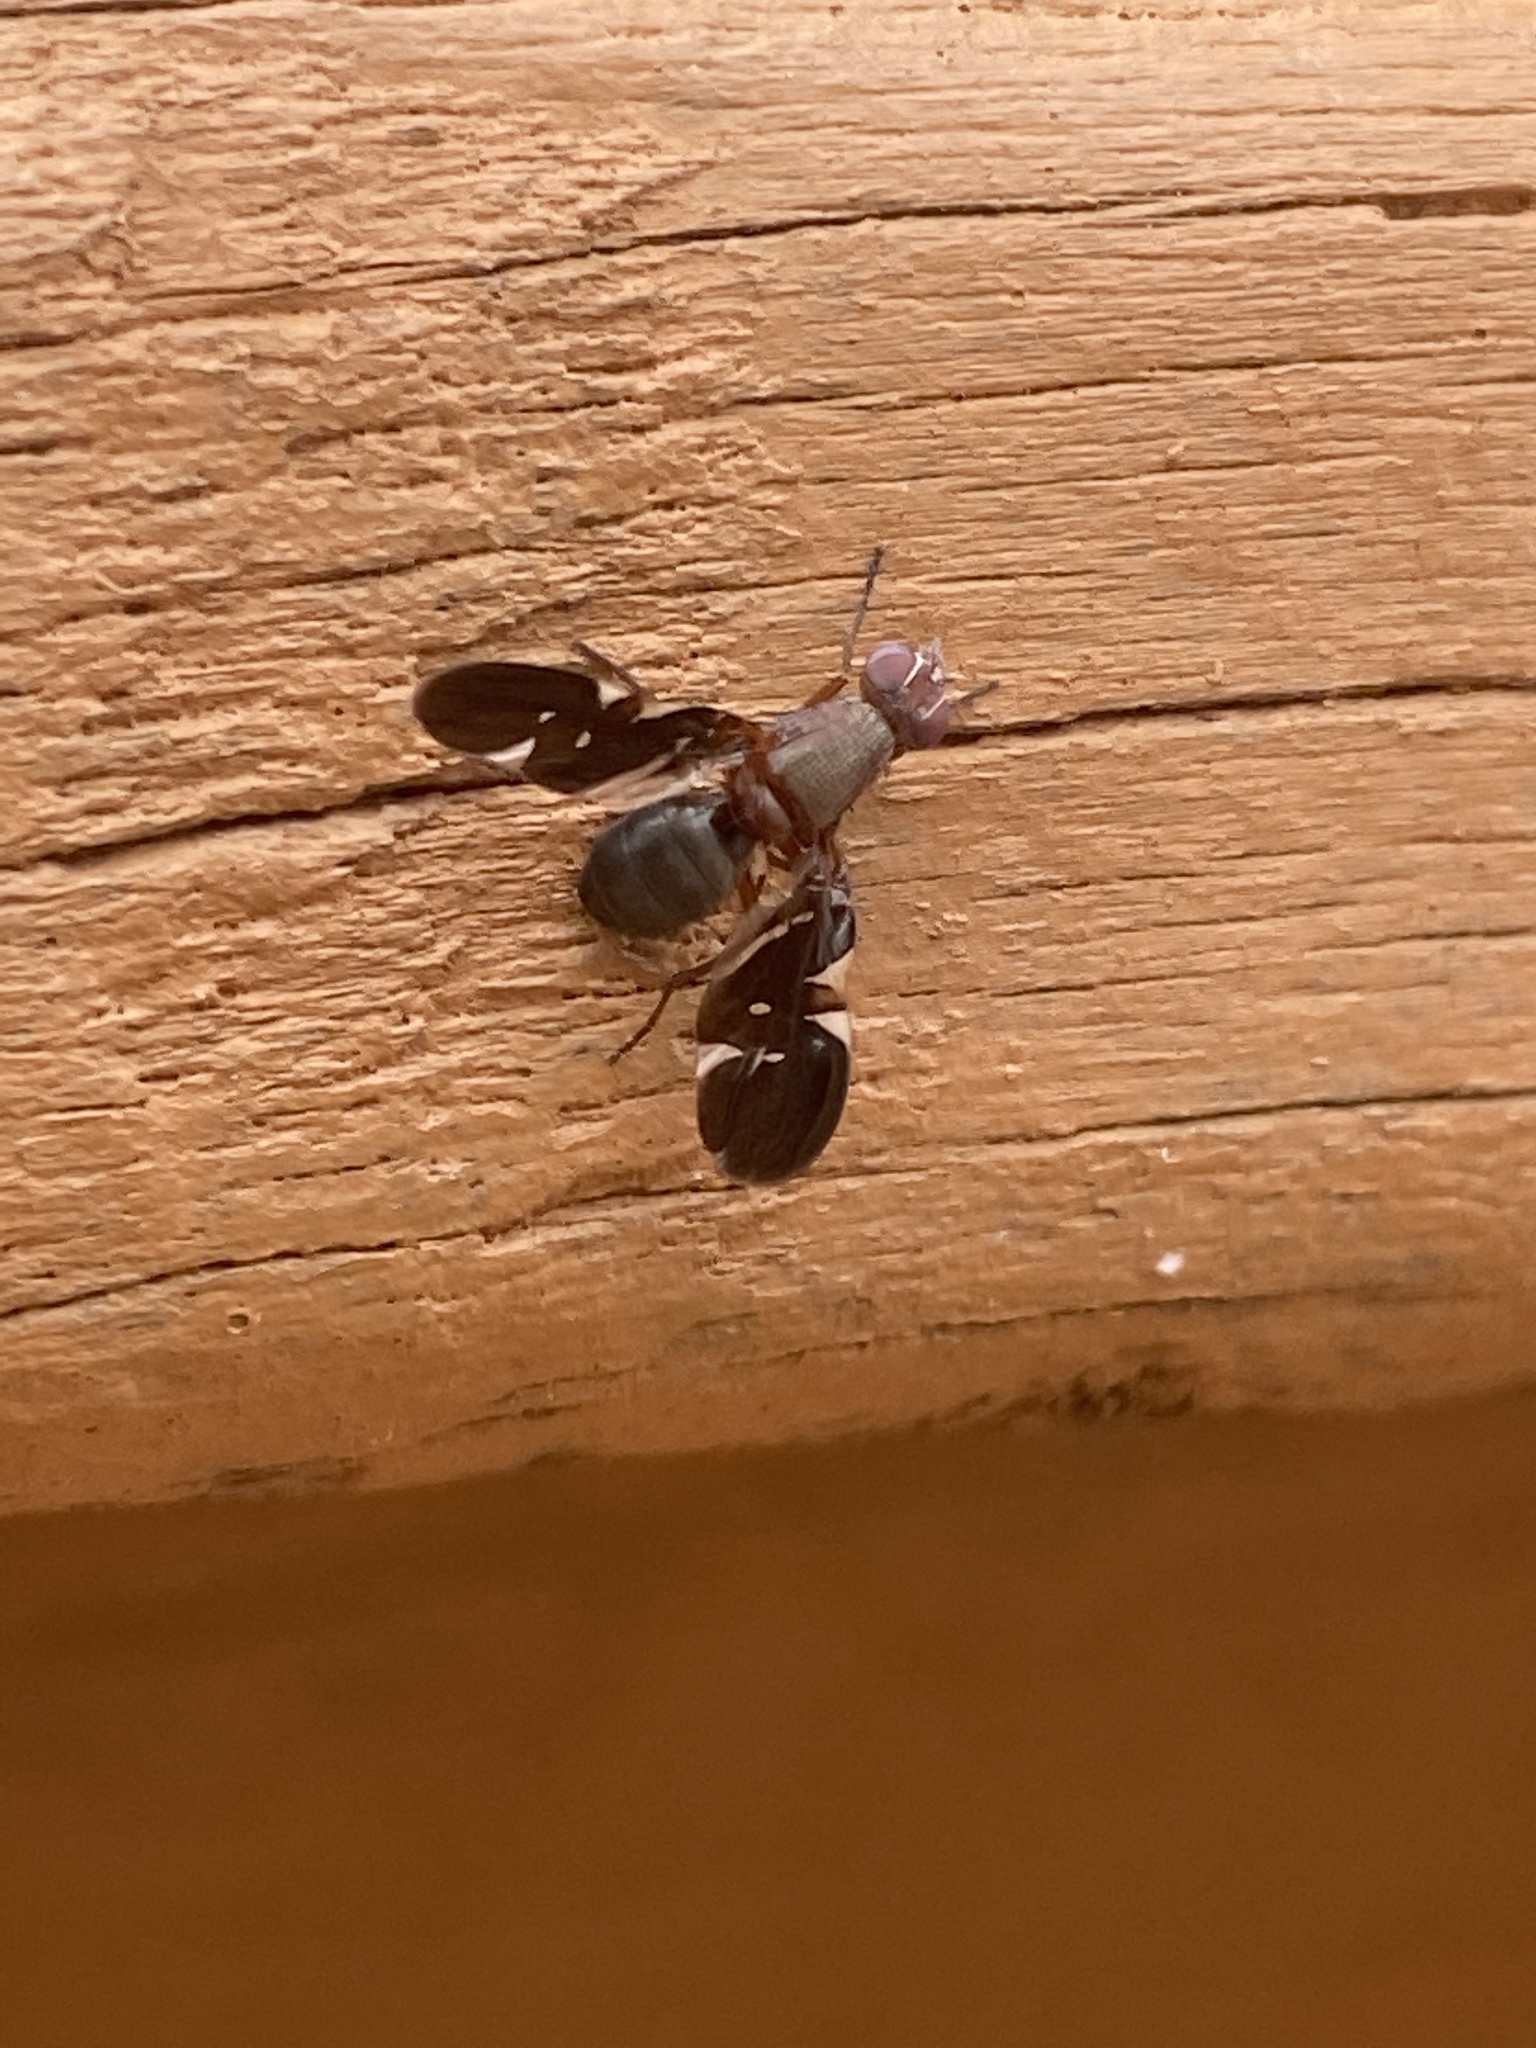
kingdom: Animalia
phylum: Arthropoda
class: Insecta
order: Diptera
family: Ulidiidae
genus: Delphinia
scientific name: Delphinia picta
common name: Common picture-winged fly
